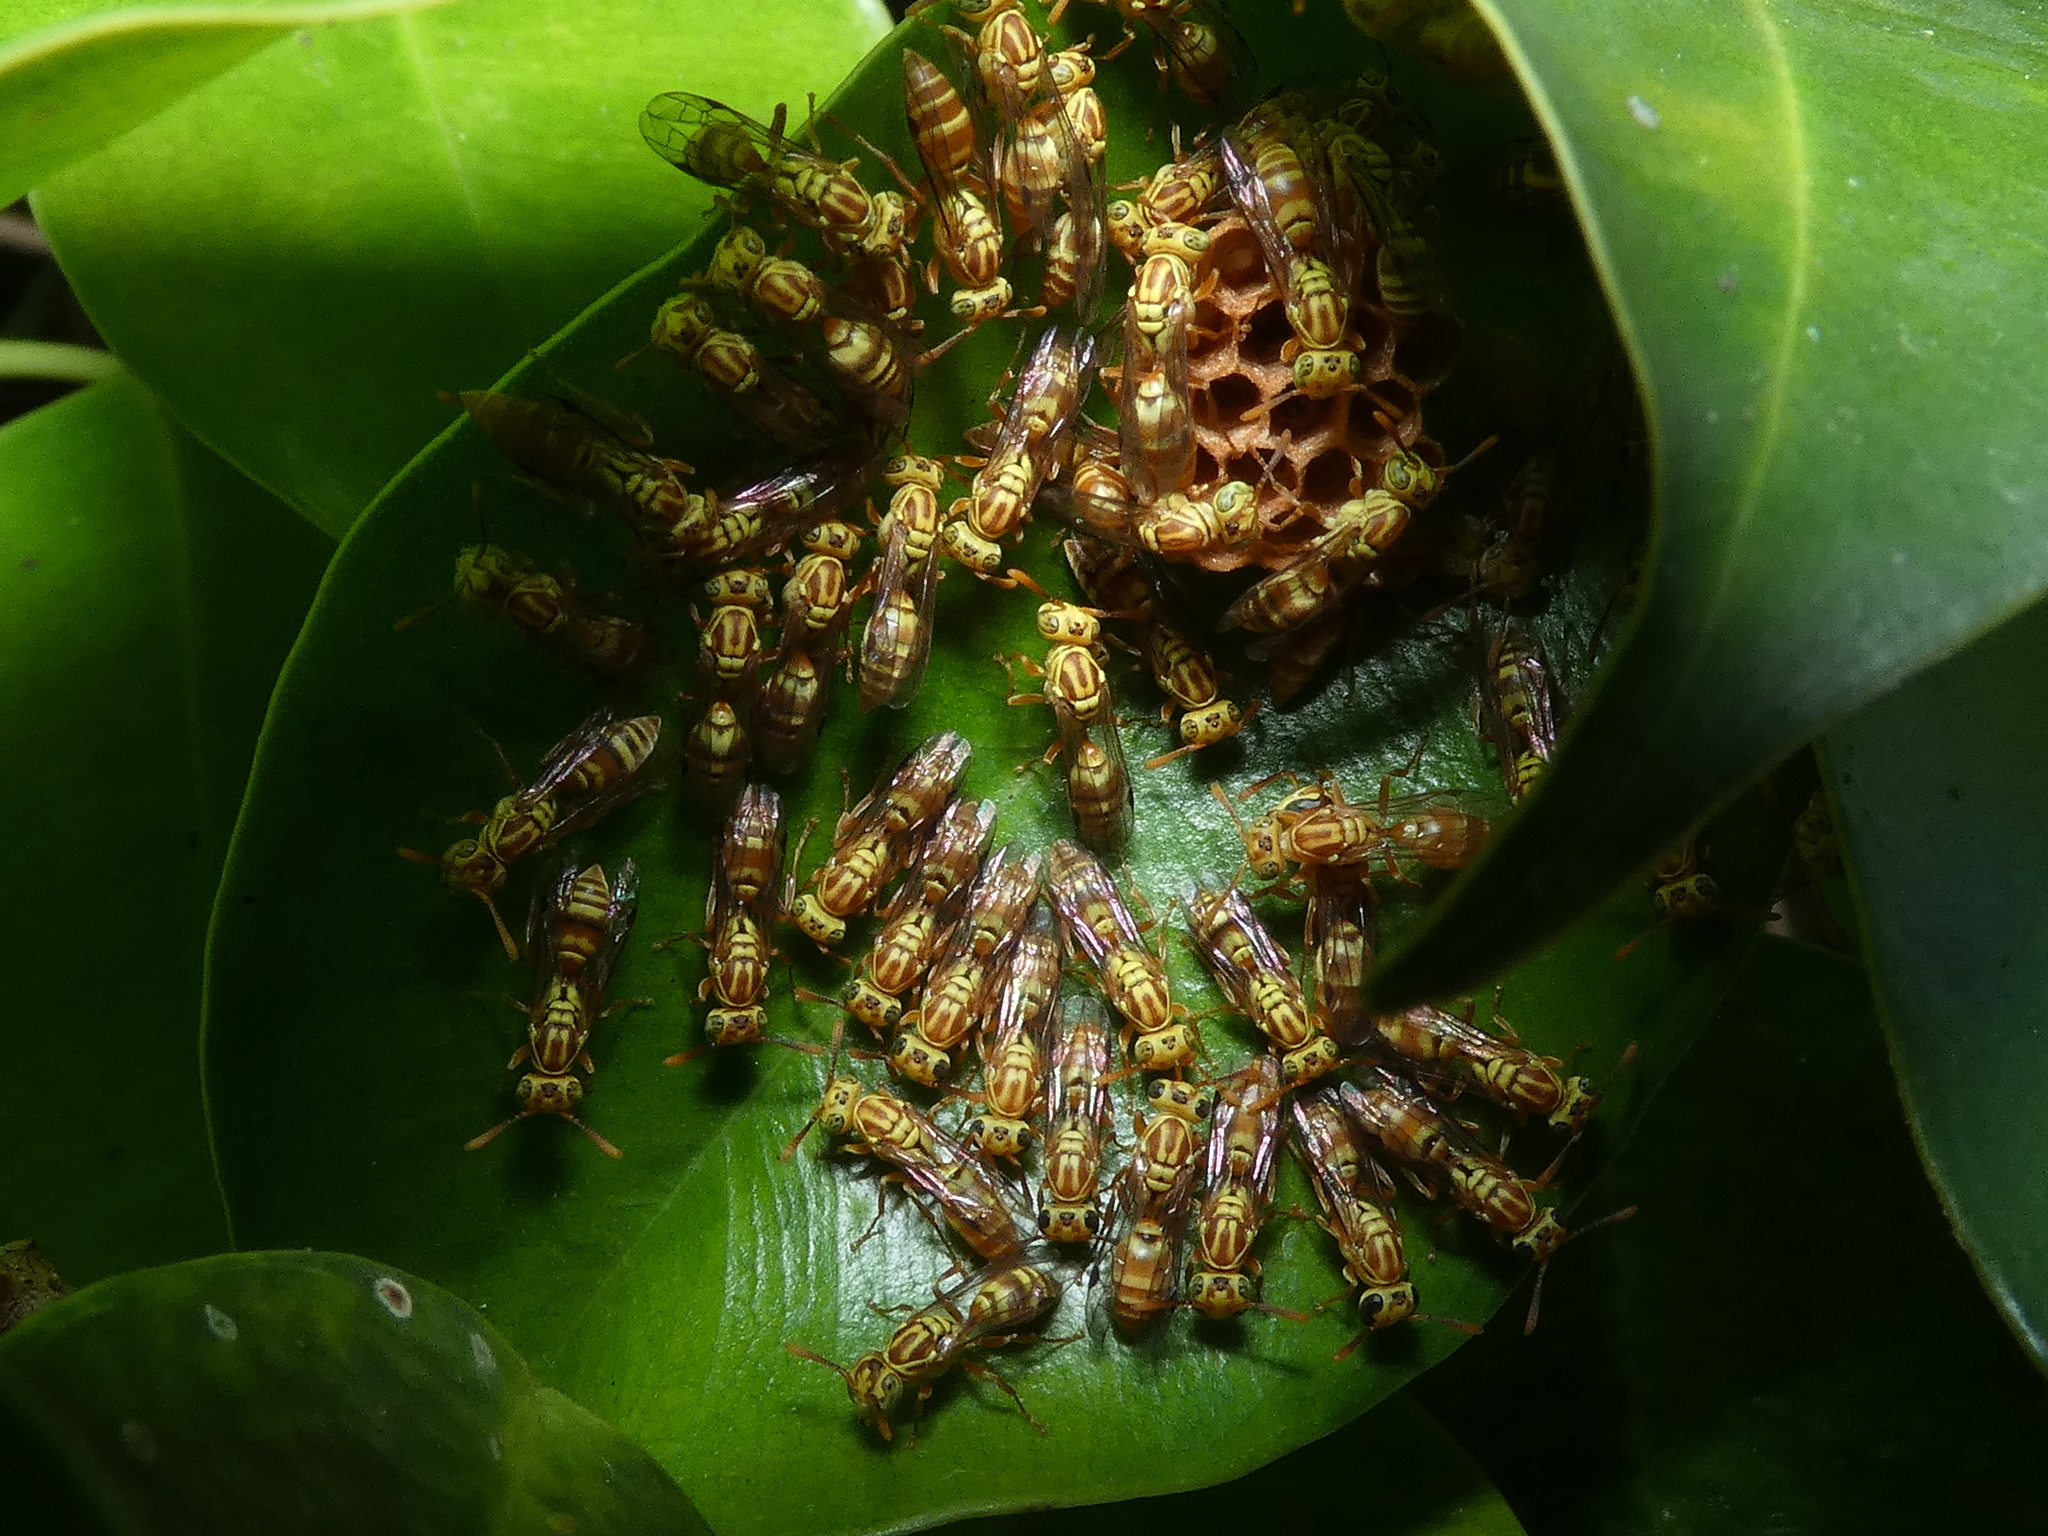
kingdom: Animalia
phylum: Arthropoda
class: Insecta
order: Hymenoptera
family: Vespidae
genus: Protopolybia
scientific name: Protopolybia potiguara
